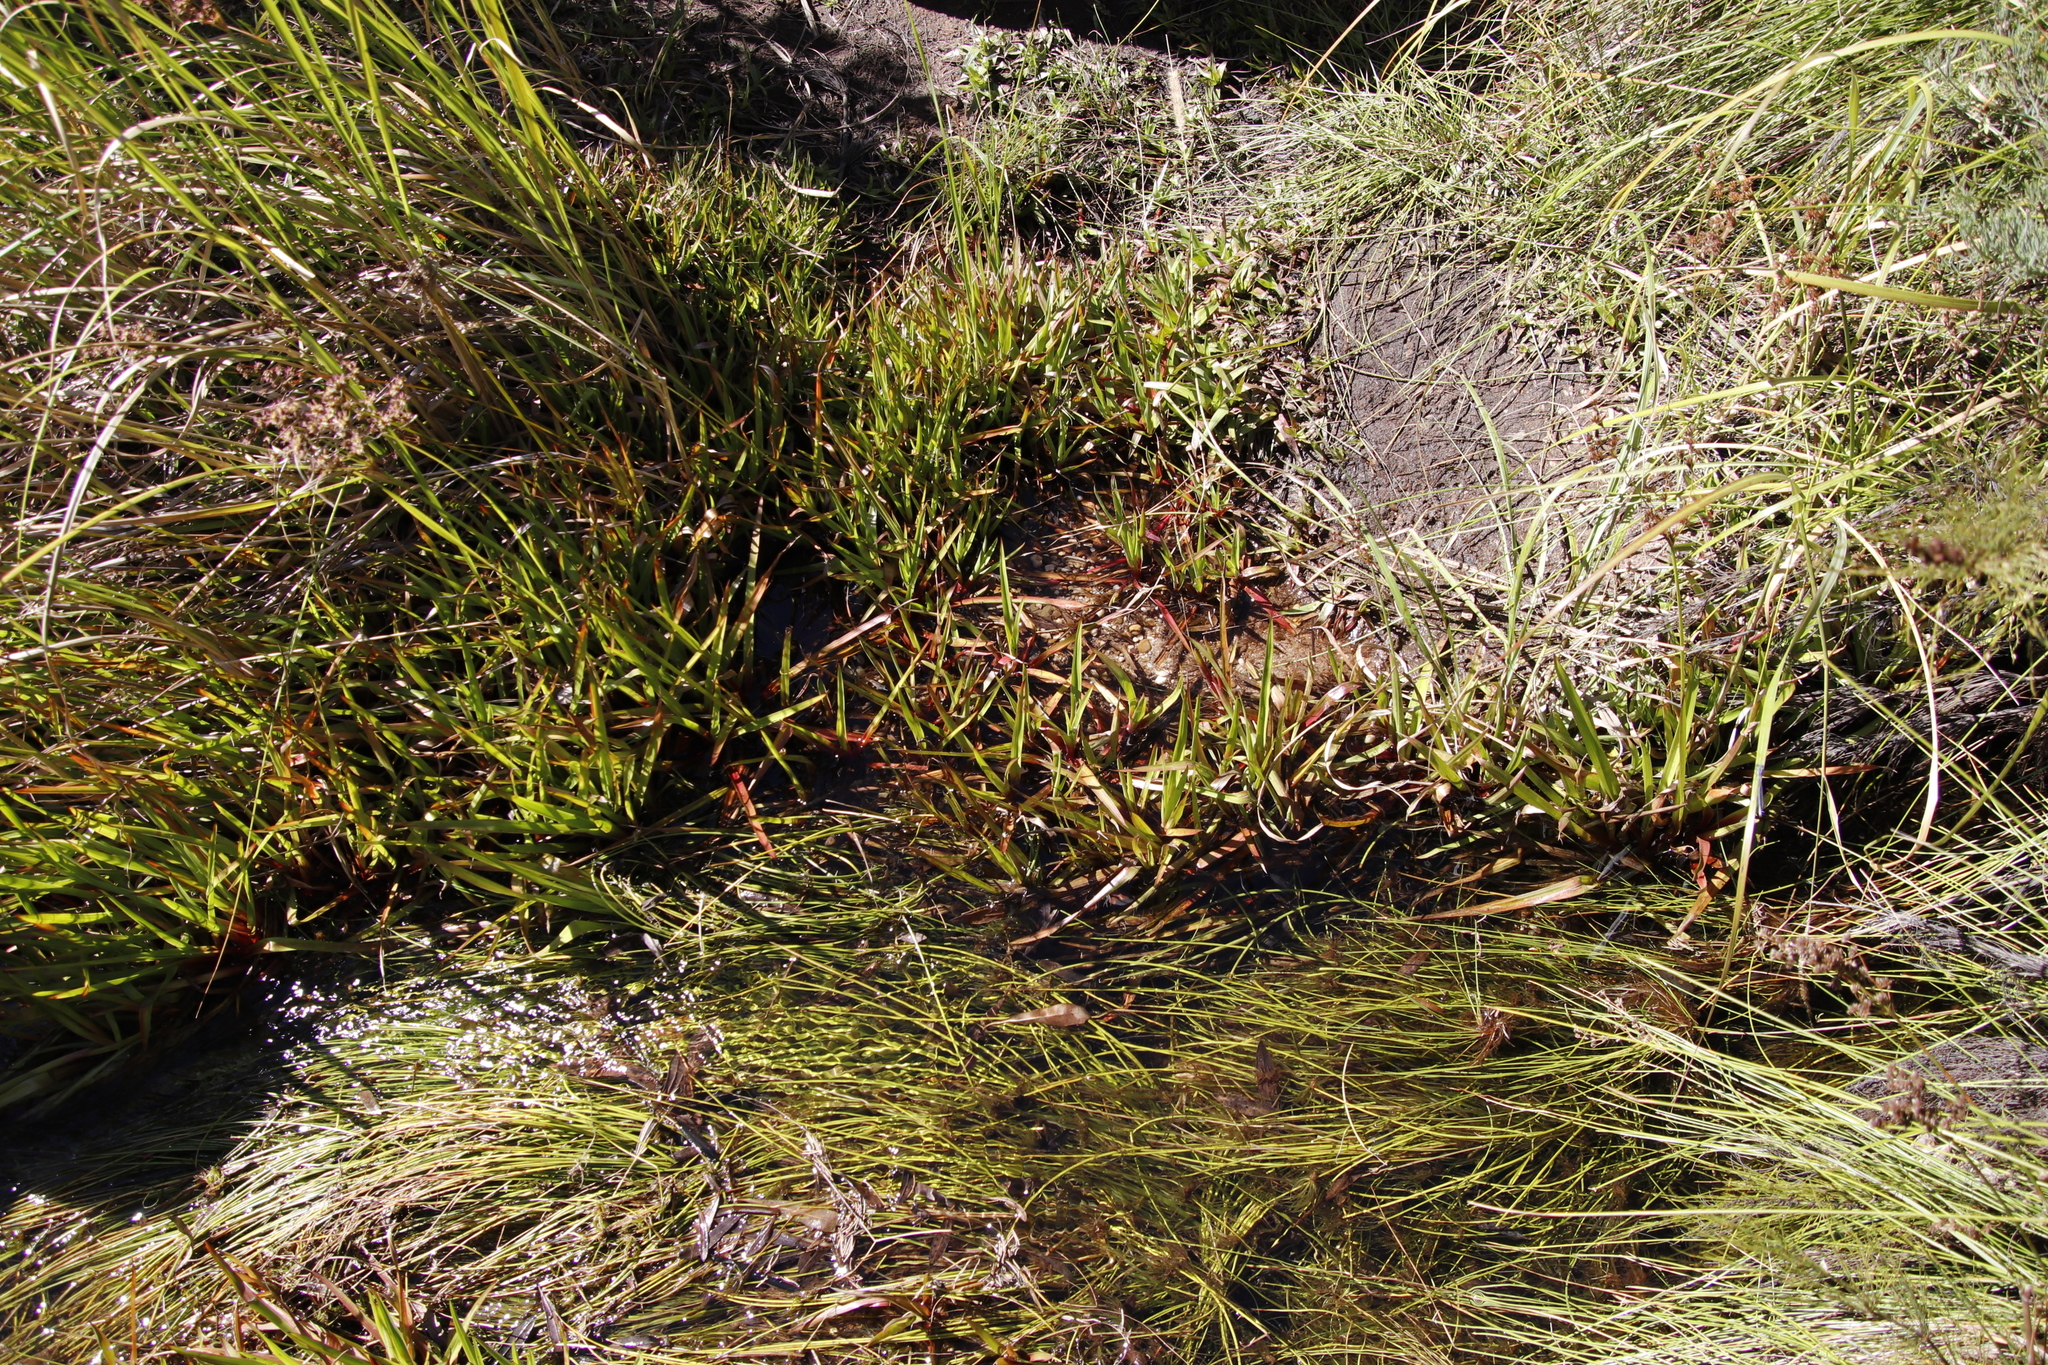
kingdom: Plantae
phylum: Tracheophyta
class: Liliopsida
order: Poales
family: Juncaceae
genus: Juncus
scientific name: Juncus lomatophyllus
